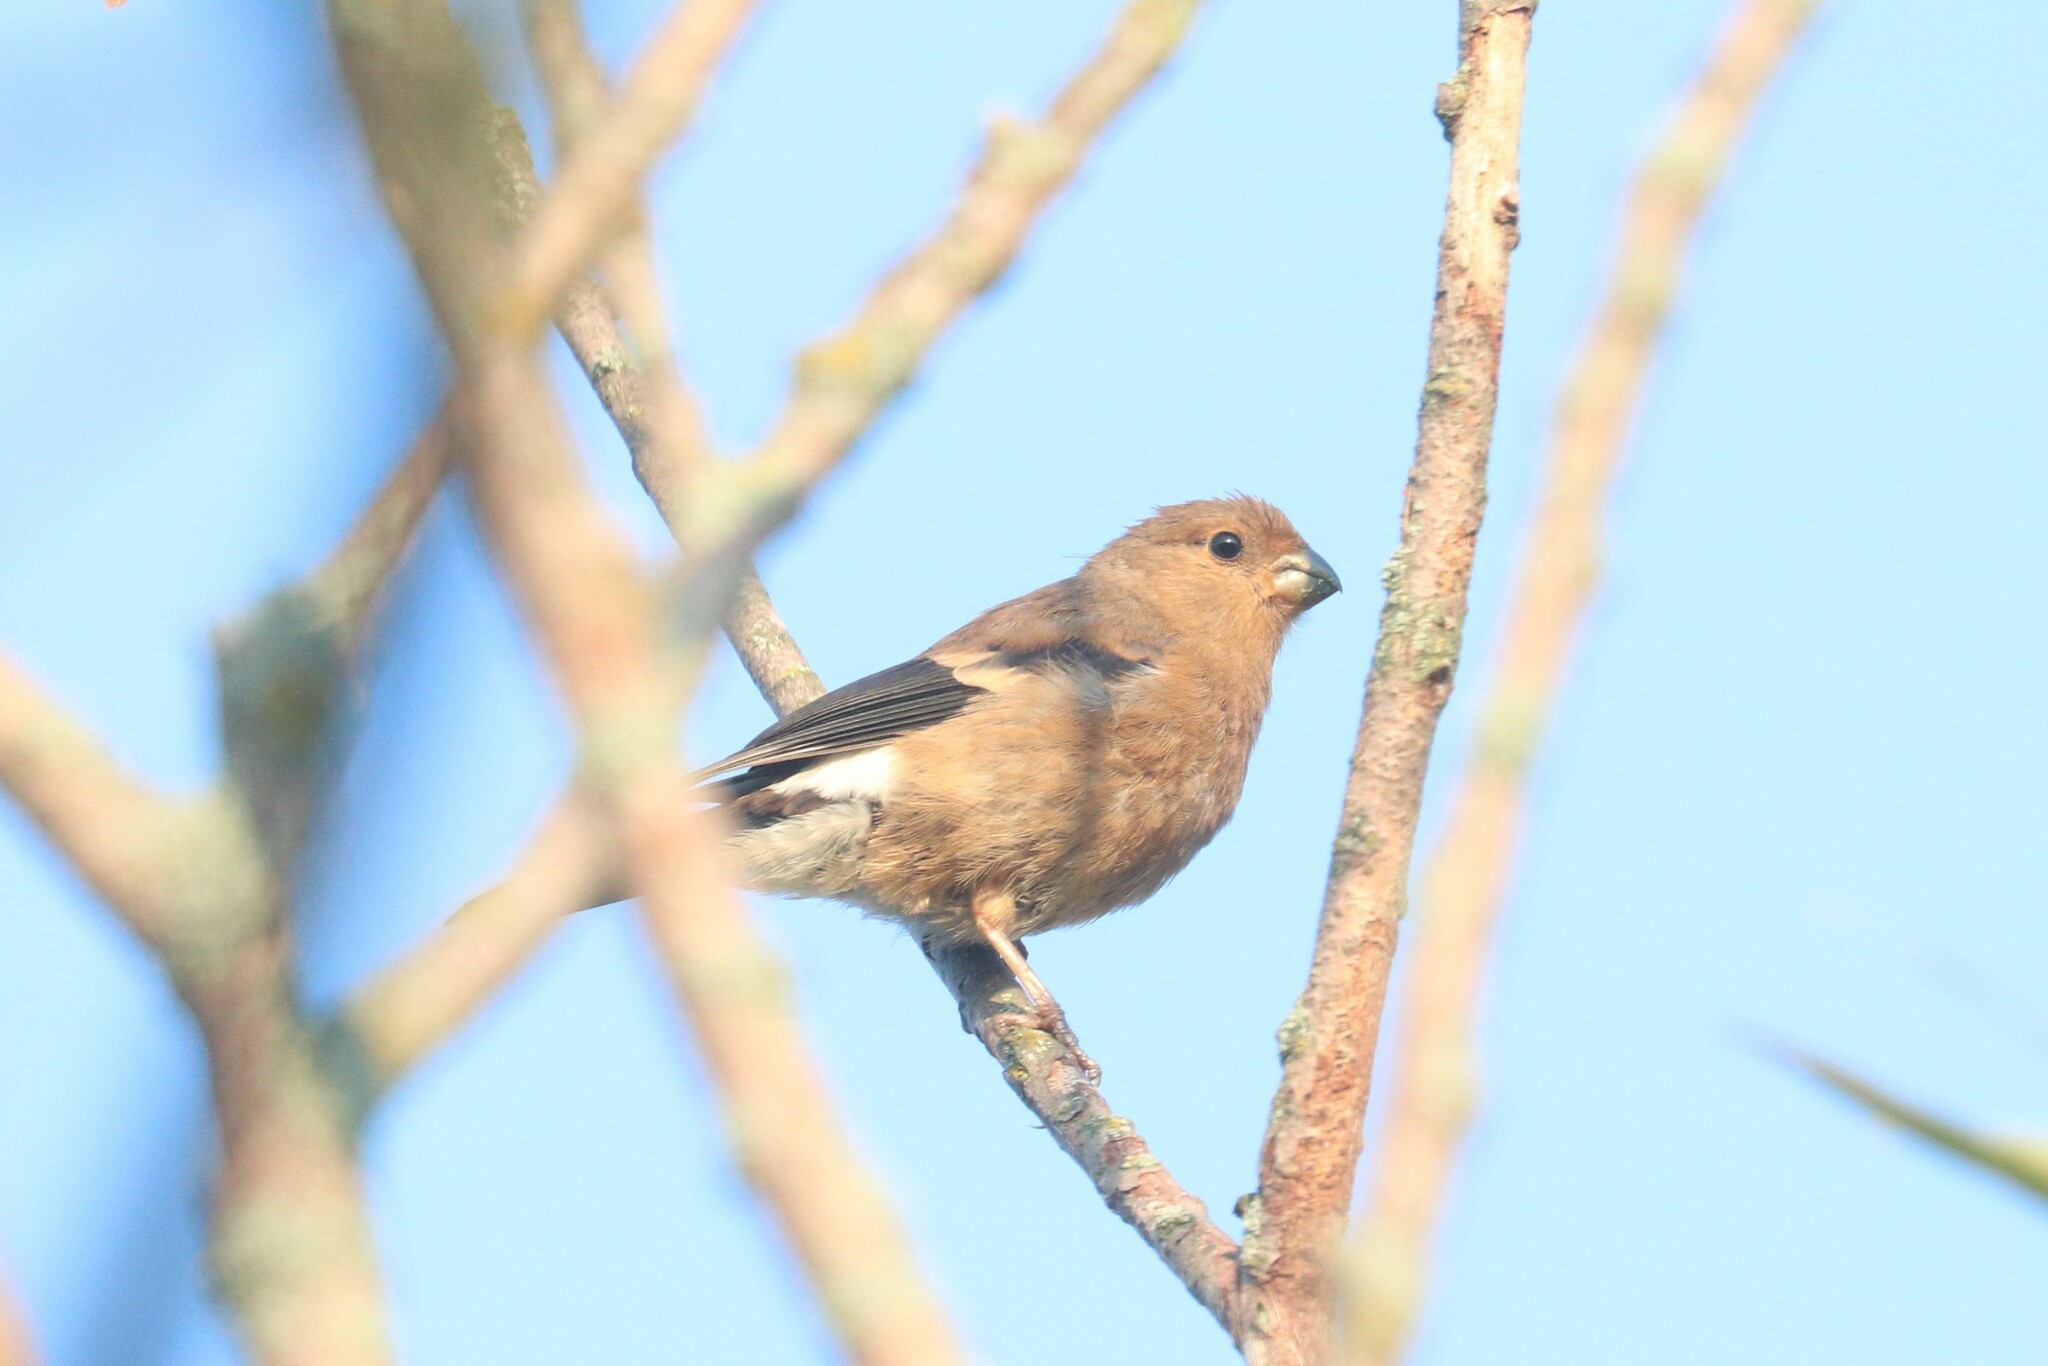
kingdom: Animalia
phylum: Chordata
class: Aves
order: Passeriformes
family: Fringillidae
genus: Pyrrhula
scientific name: Pyrrhula pyrrhula
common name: Eurasian bullfinch
